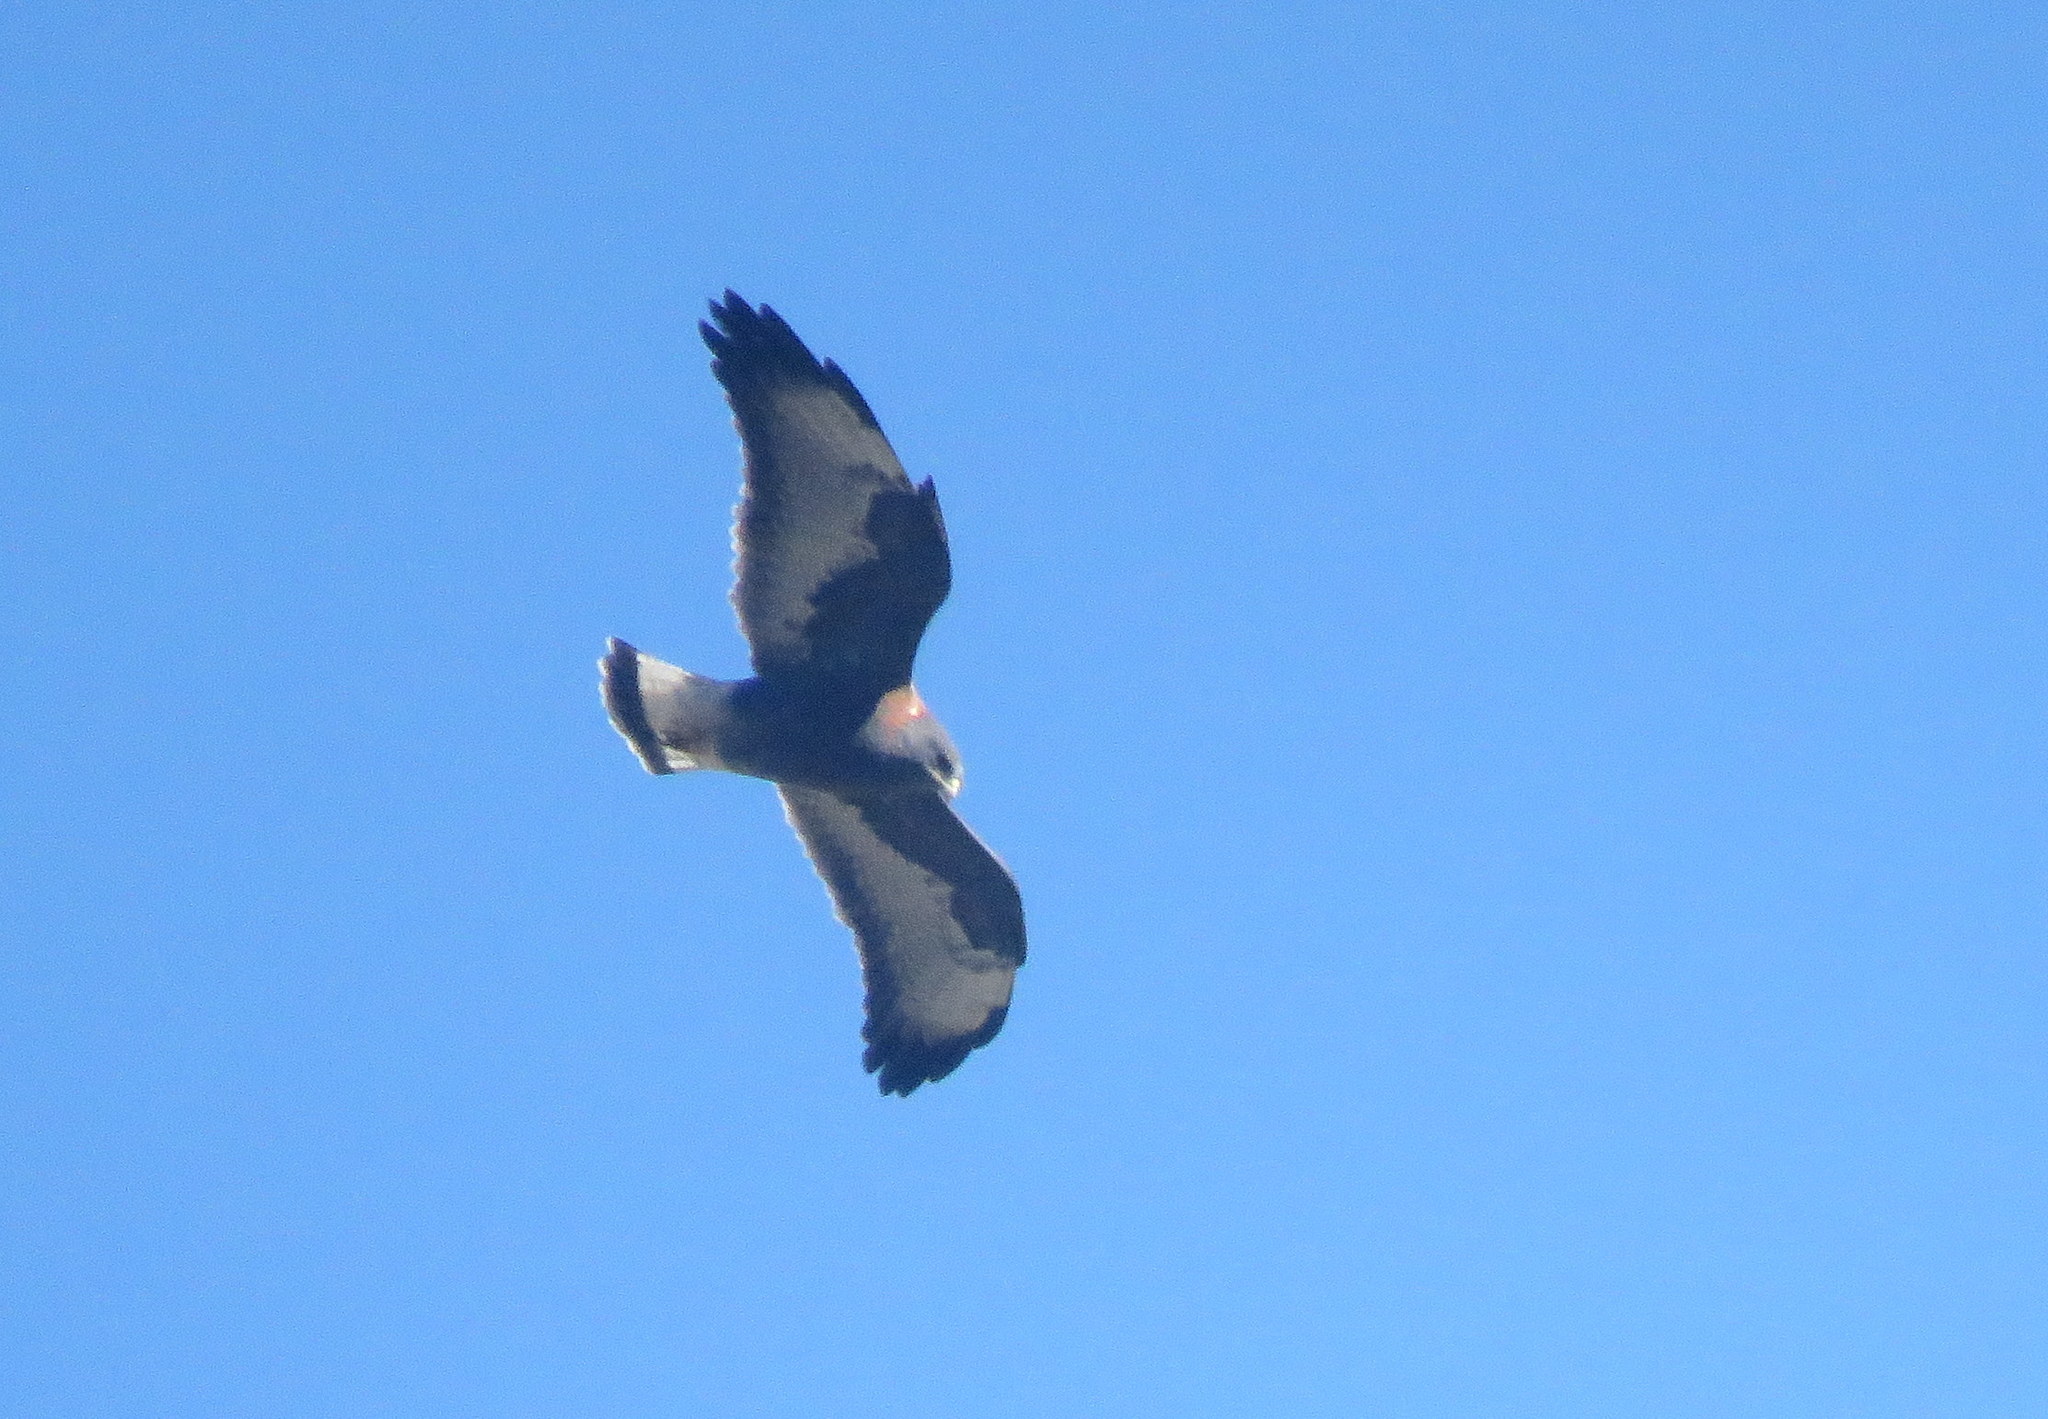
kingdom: Animalia
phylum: Chordata
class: Aves
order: Accipitriformes
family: Accipitridae
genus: Buteo
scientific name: Buteo polyosoma
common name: Variable hawk
